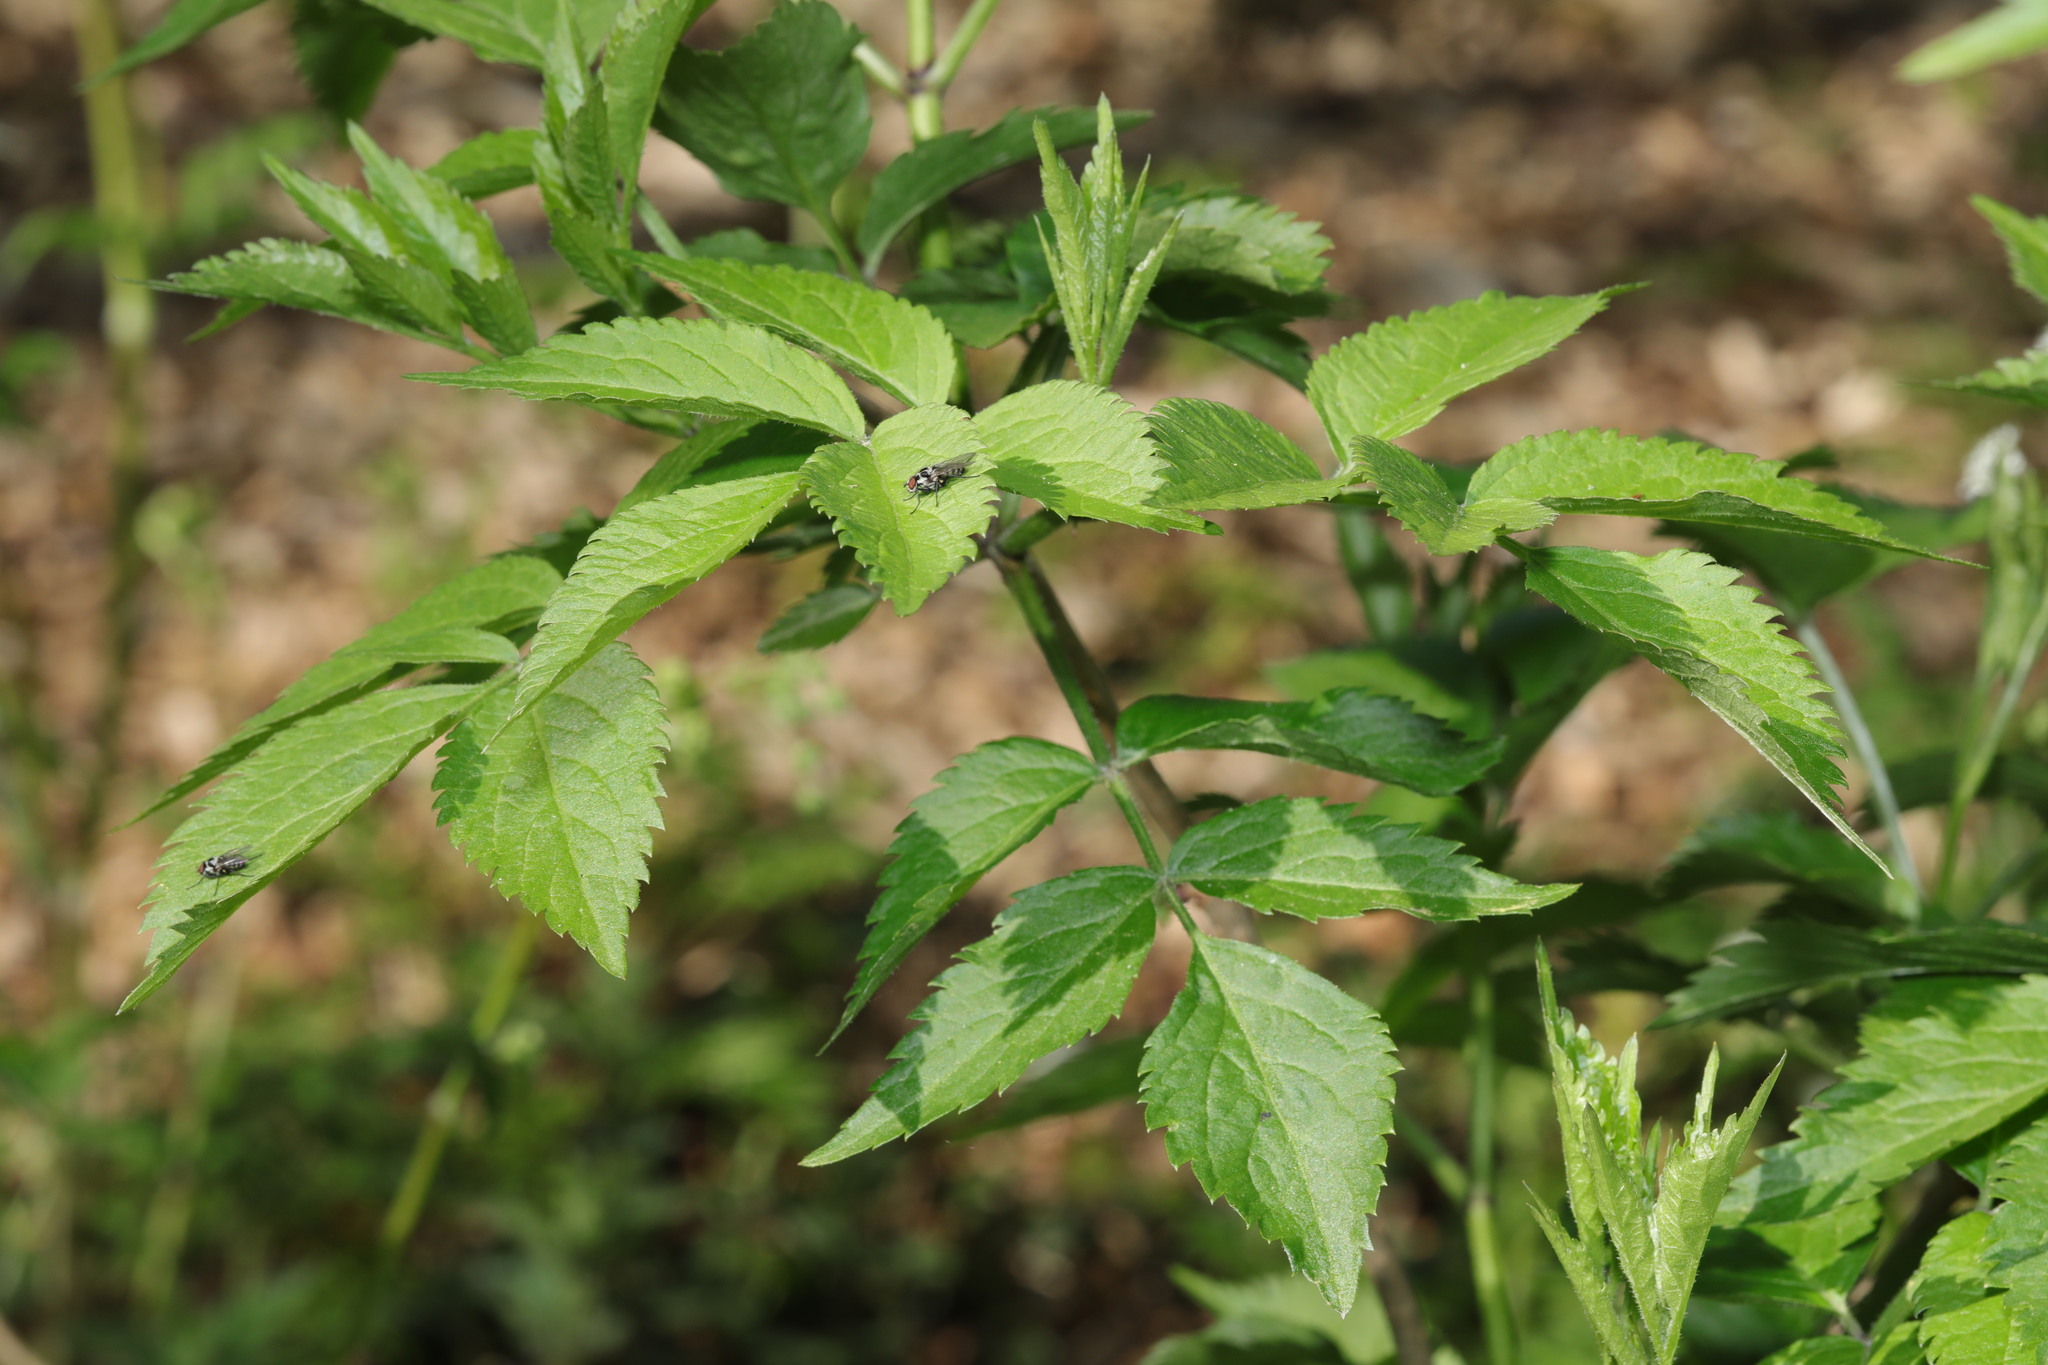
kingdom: Plantae
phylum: Tracheophyta
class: Magnoliopsida
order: Dipsacales
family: Viburnaceae
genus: Sambucus
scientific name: Sambucus nigra
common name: Elder
